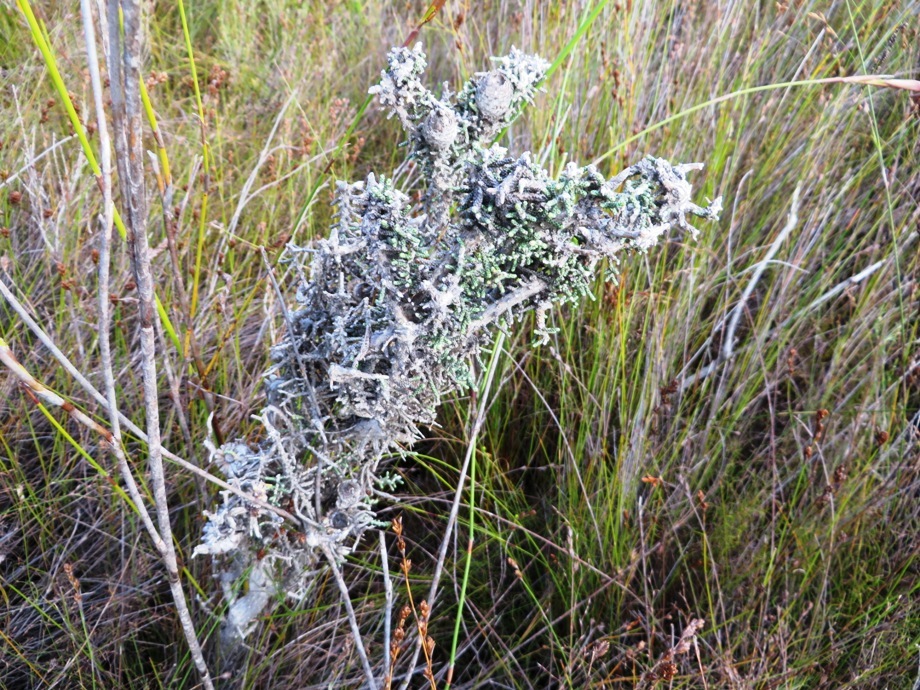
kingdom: Plantae
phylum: Tracheophyta
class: Magnoliopsida
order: Asterales
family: Asteraceae
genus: Phaenocoma
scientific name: Phaenocoma prolifera
